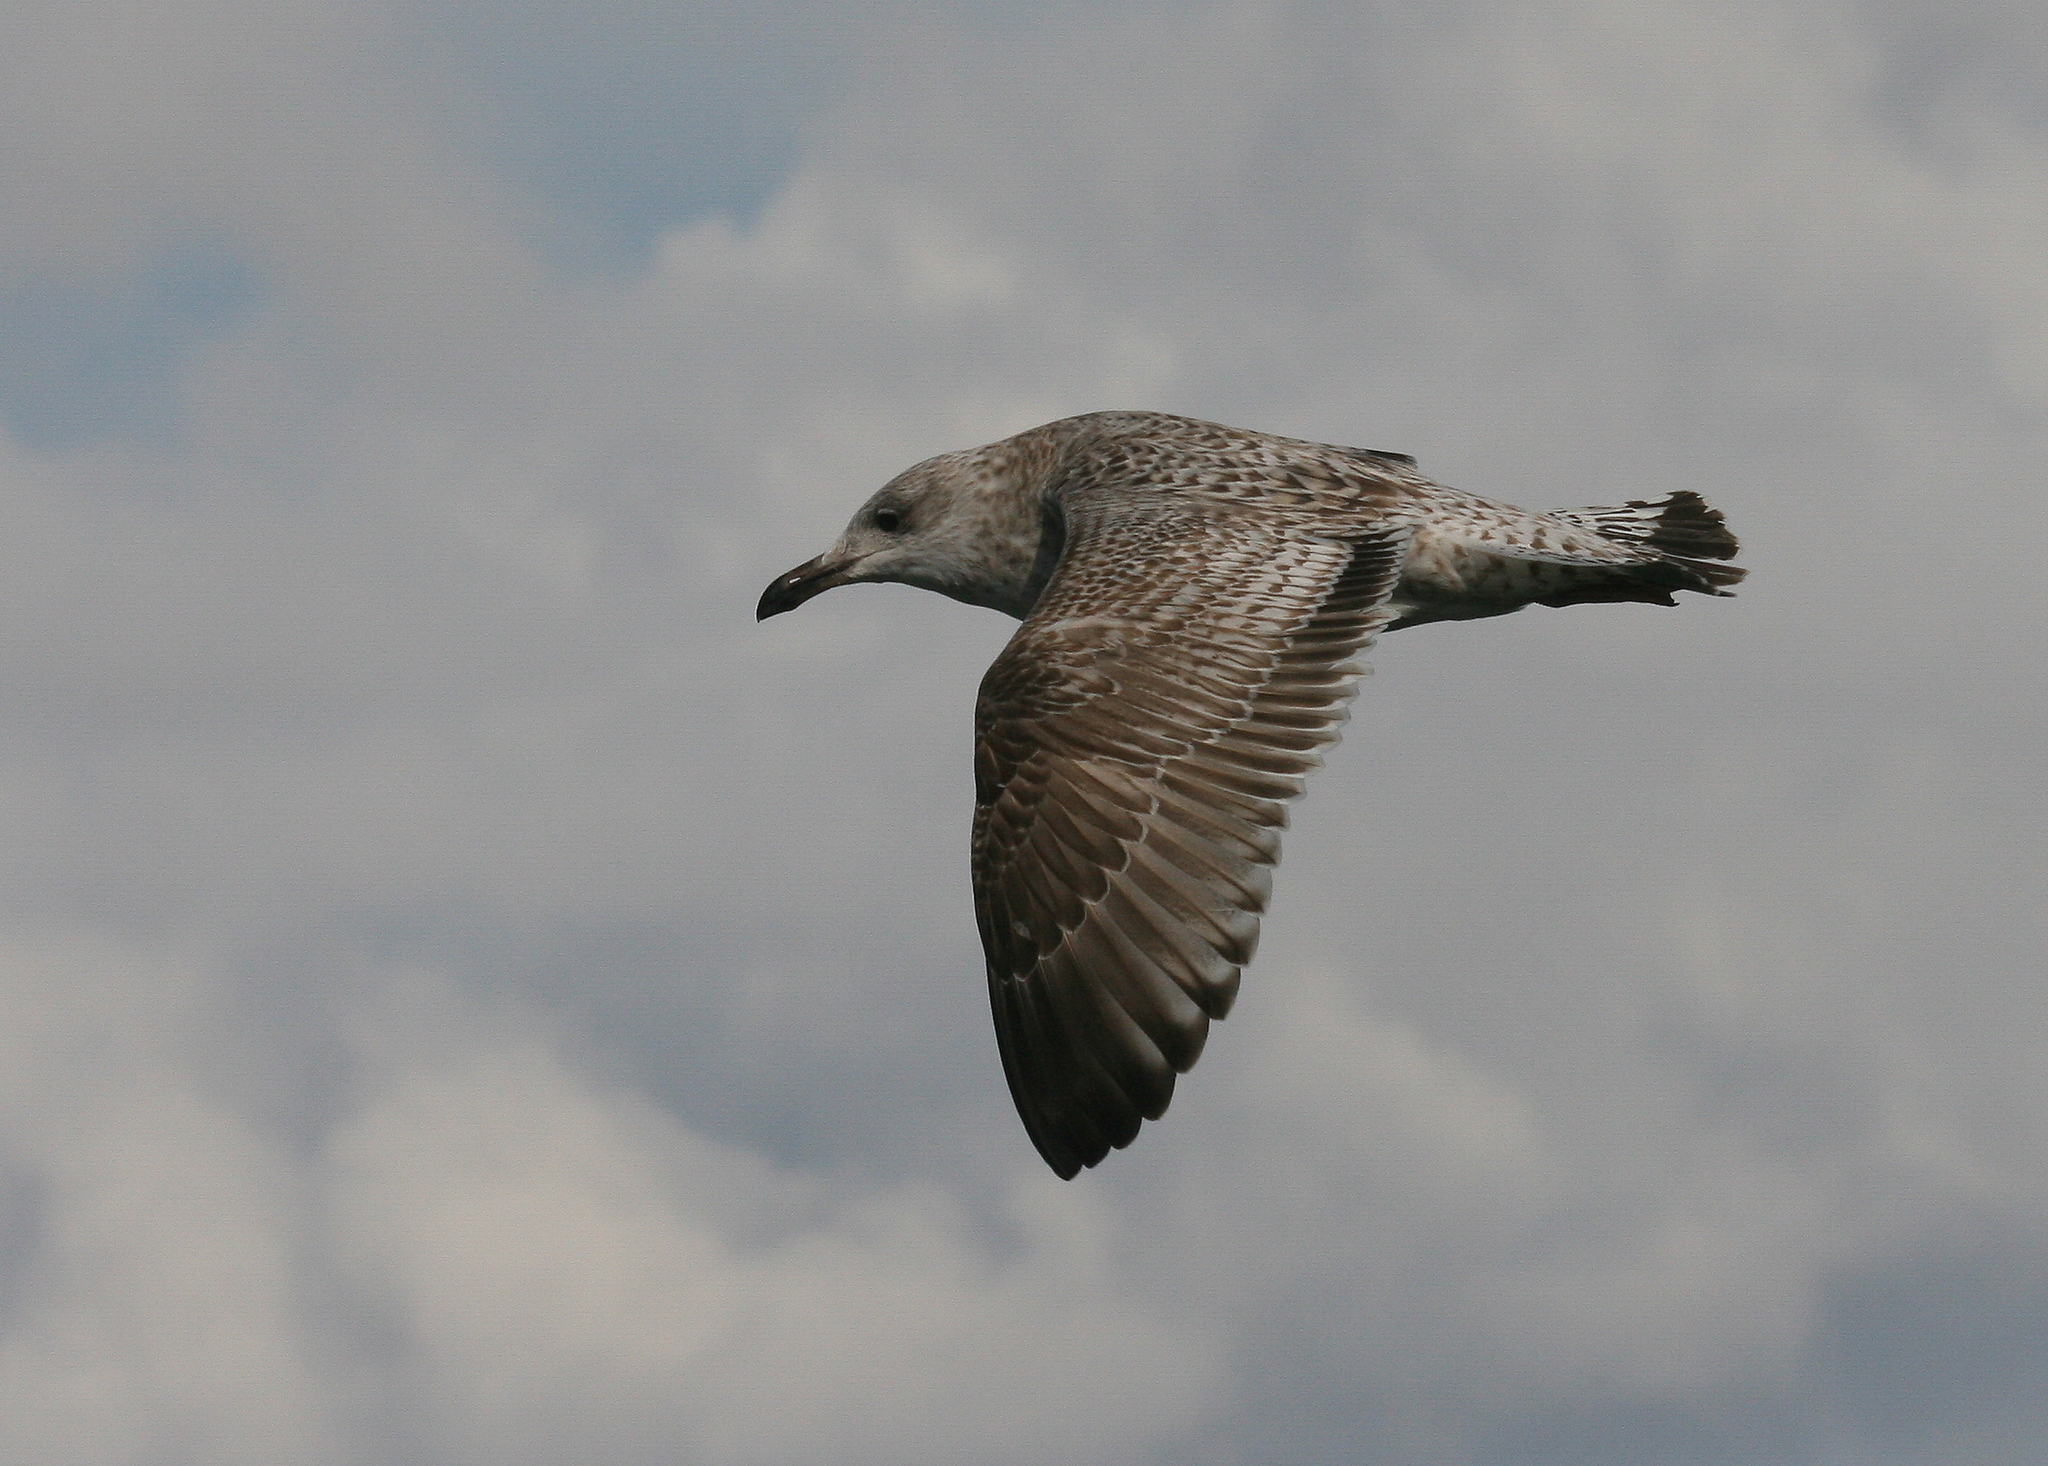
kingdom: Animalia
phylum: Chordata
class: Aves
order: Charadriiformes
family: Laridae
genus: Larus
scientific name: Larus argentatus
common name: Herring gull
